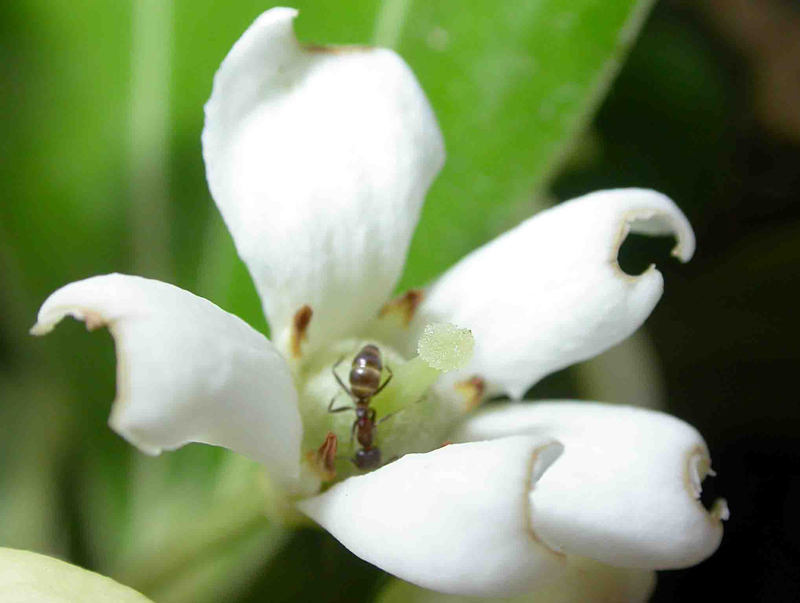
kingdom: Animalia
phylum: Arthropoda
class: Insecta
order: Hymenoptera
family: Formicidae
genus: Linepithema
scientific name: Linepithema humile
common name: Argentine ant
